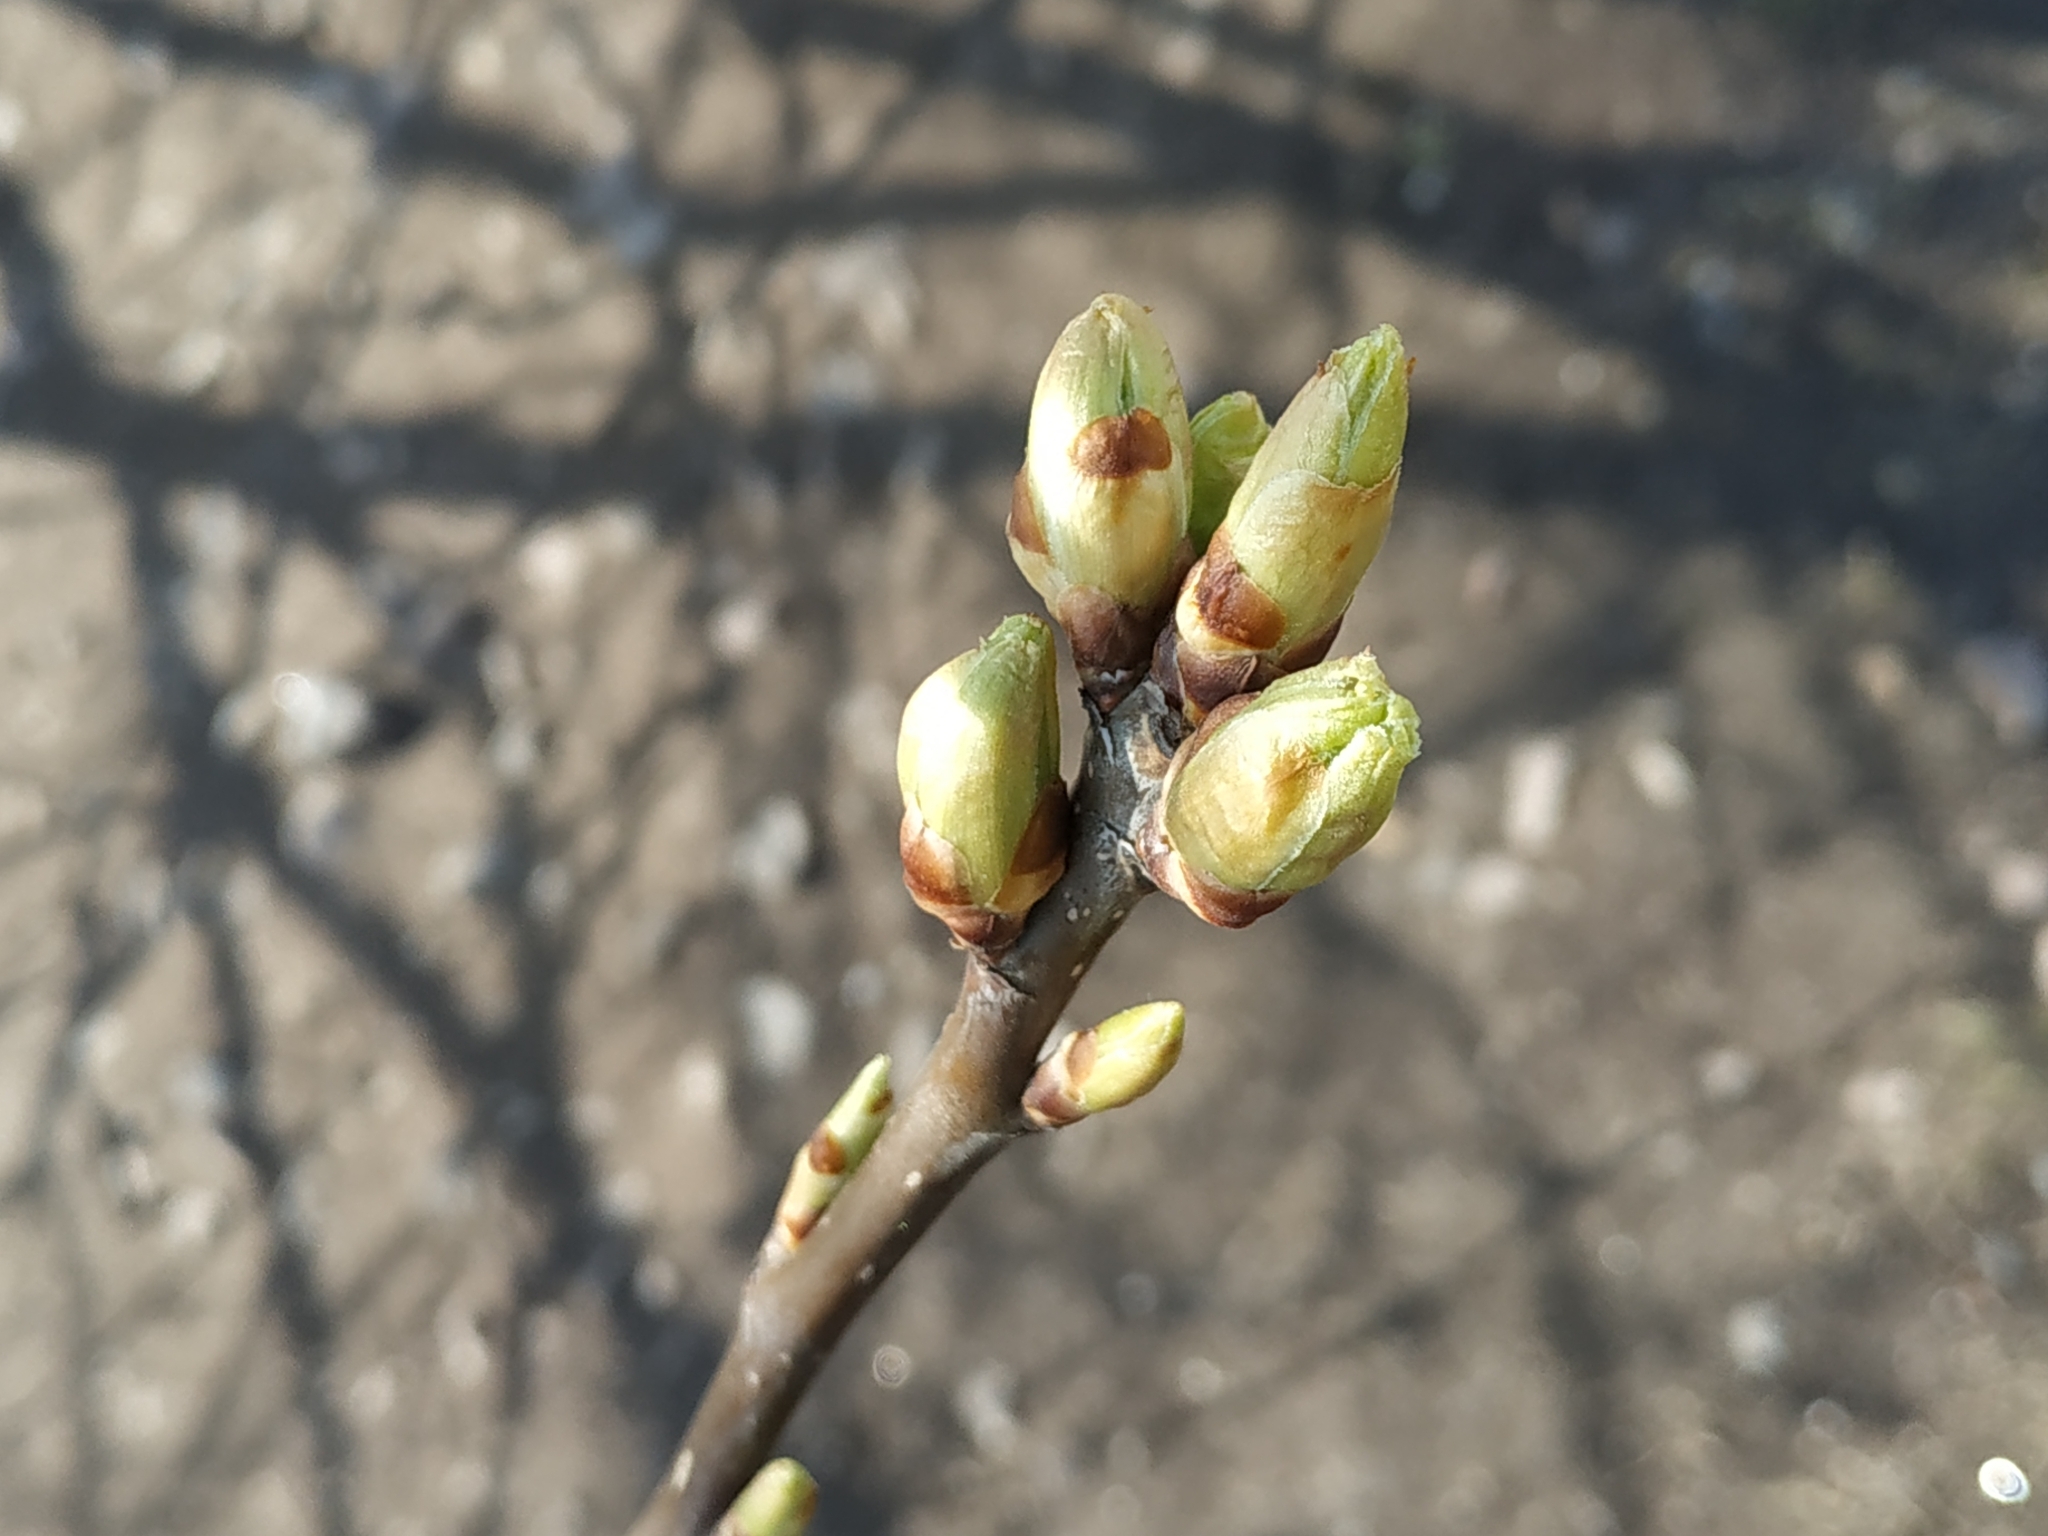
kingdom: Plantae
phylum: Tracheophyta
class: Magnoliopsida
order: Rosales
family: Rosaceae
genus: Prunus
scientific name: Prunus padus
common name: Bird cherry
